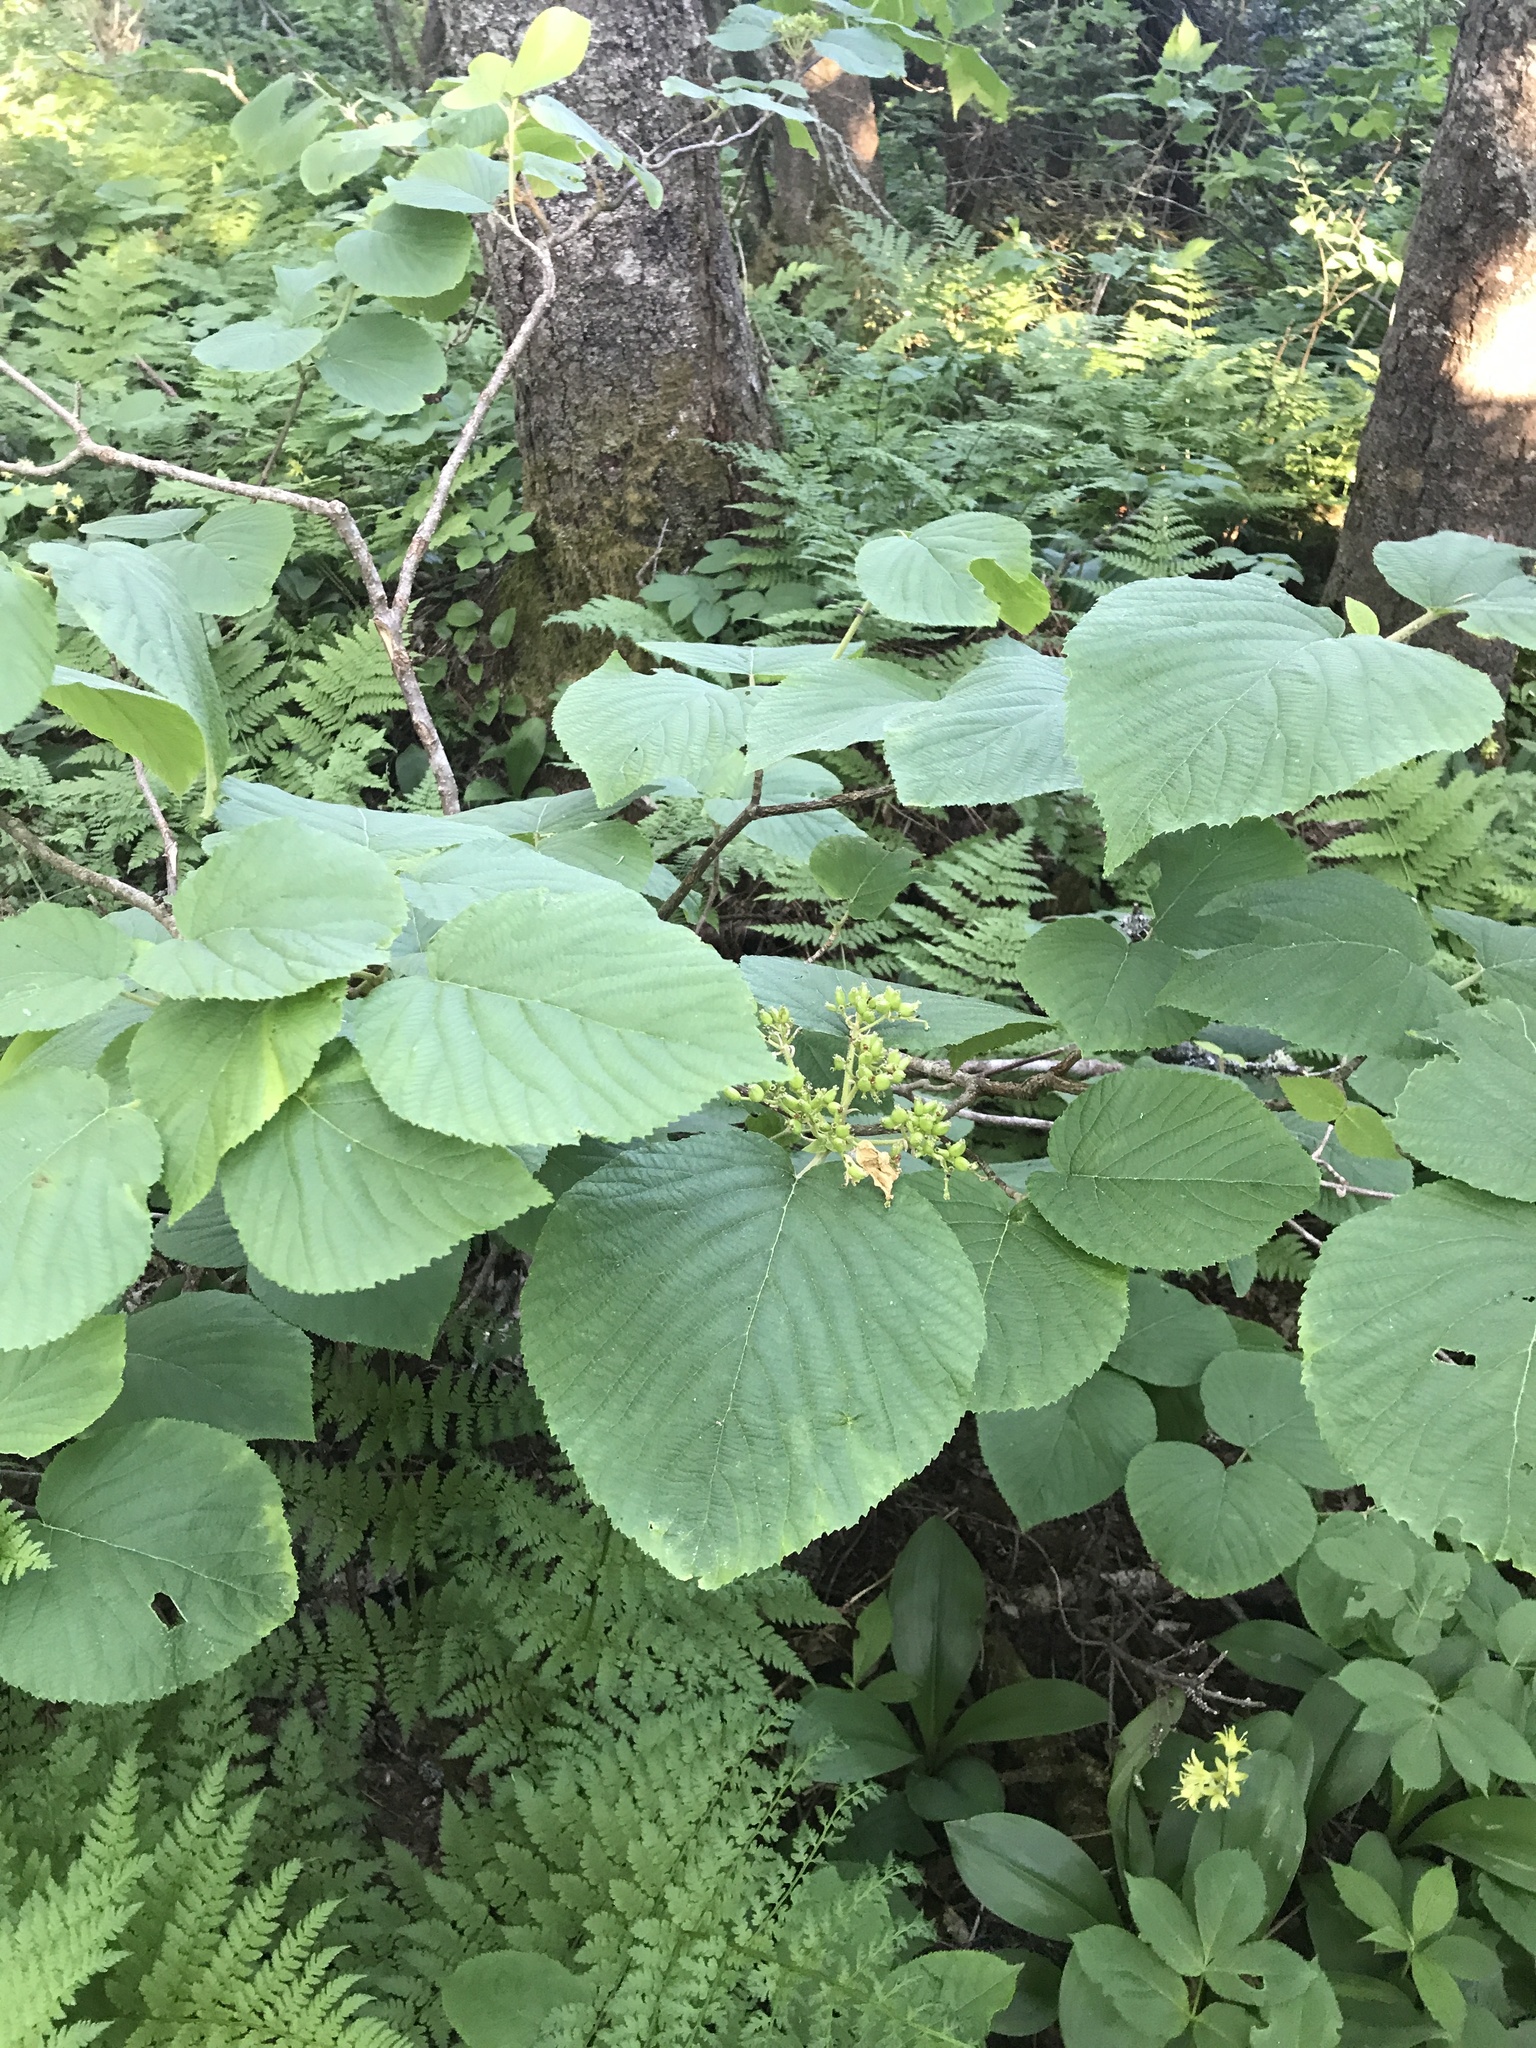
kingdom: Plantae
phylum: Tracheophyta
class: Magnoliopsida
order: Dipsacales
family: Viburnaceae
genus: Viburnum
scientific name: Viburnum lantanoides
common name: Hobblebush
